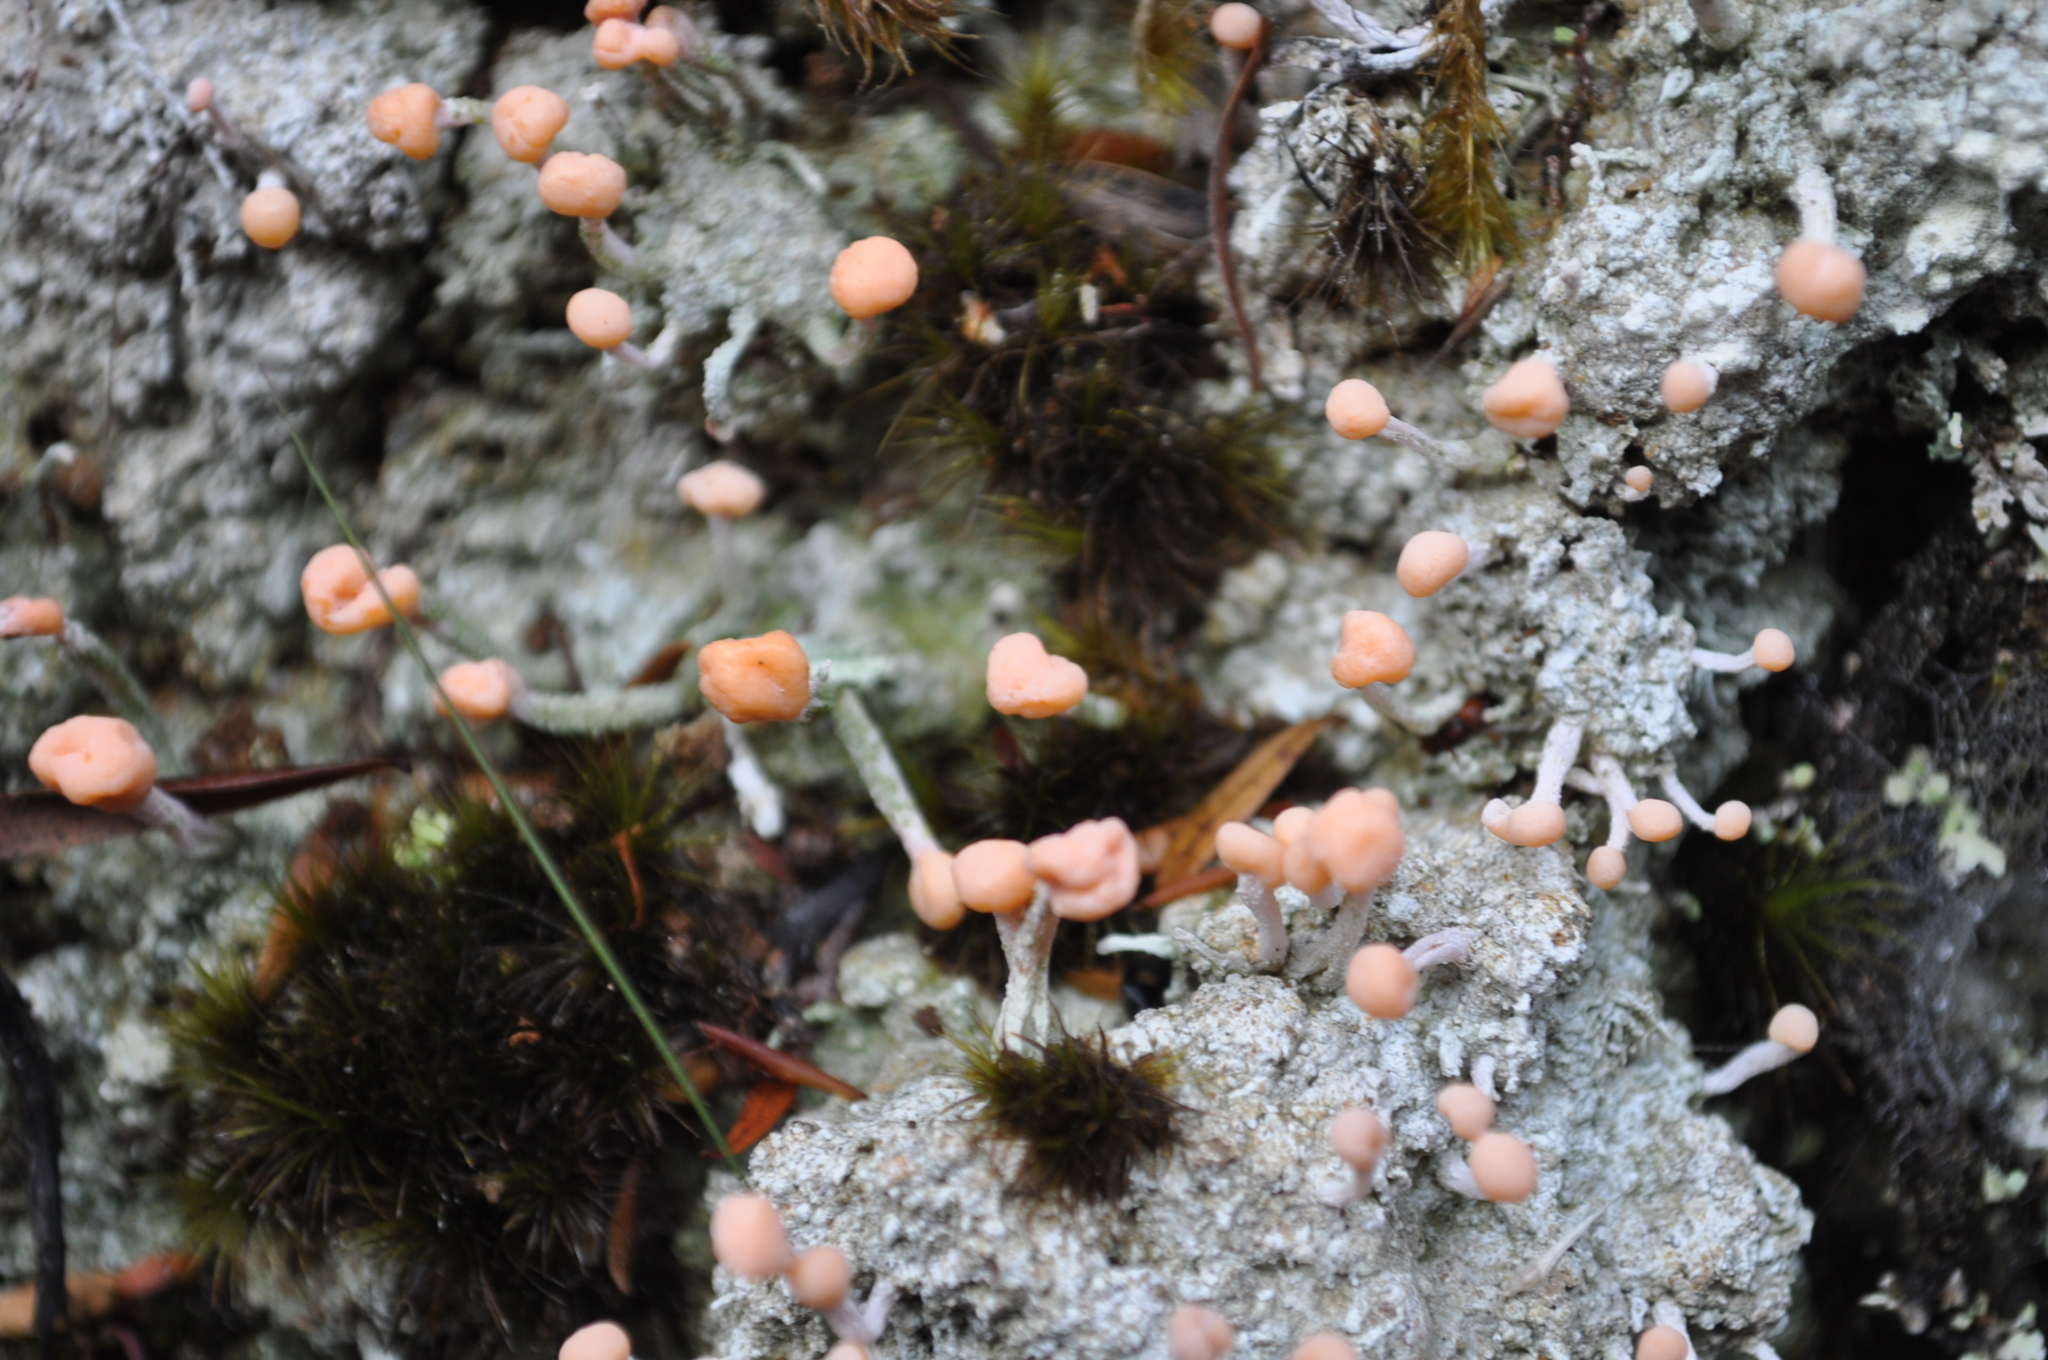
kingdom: Fungi
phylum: Ascomycota
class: Lecanoromycetes
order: Pertusariales
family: Icmadophilaceae
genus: Dibaeis
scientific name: Dibaeis arcuata
